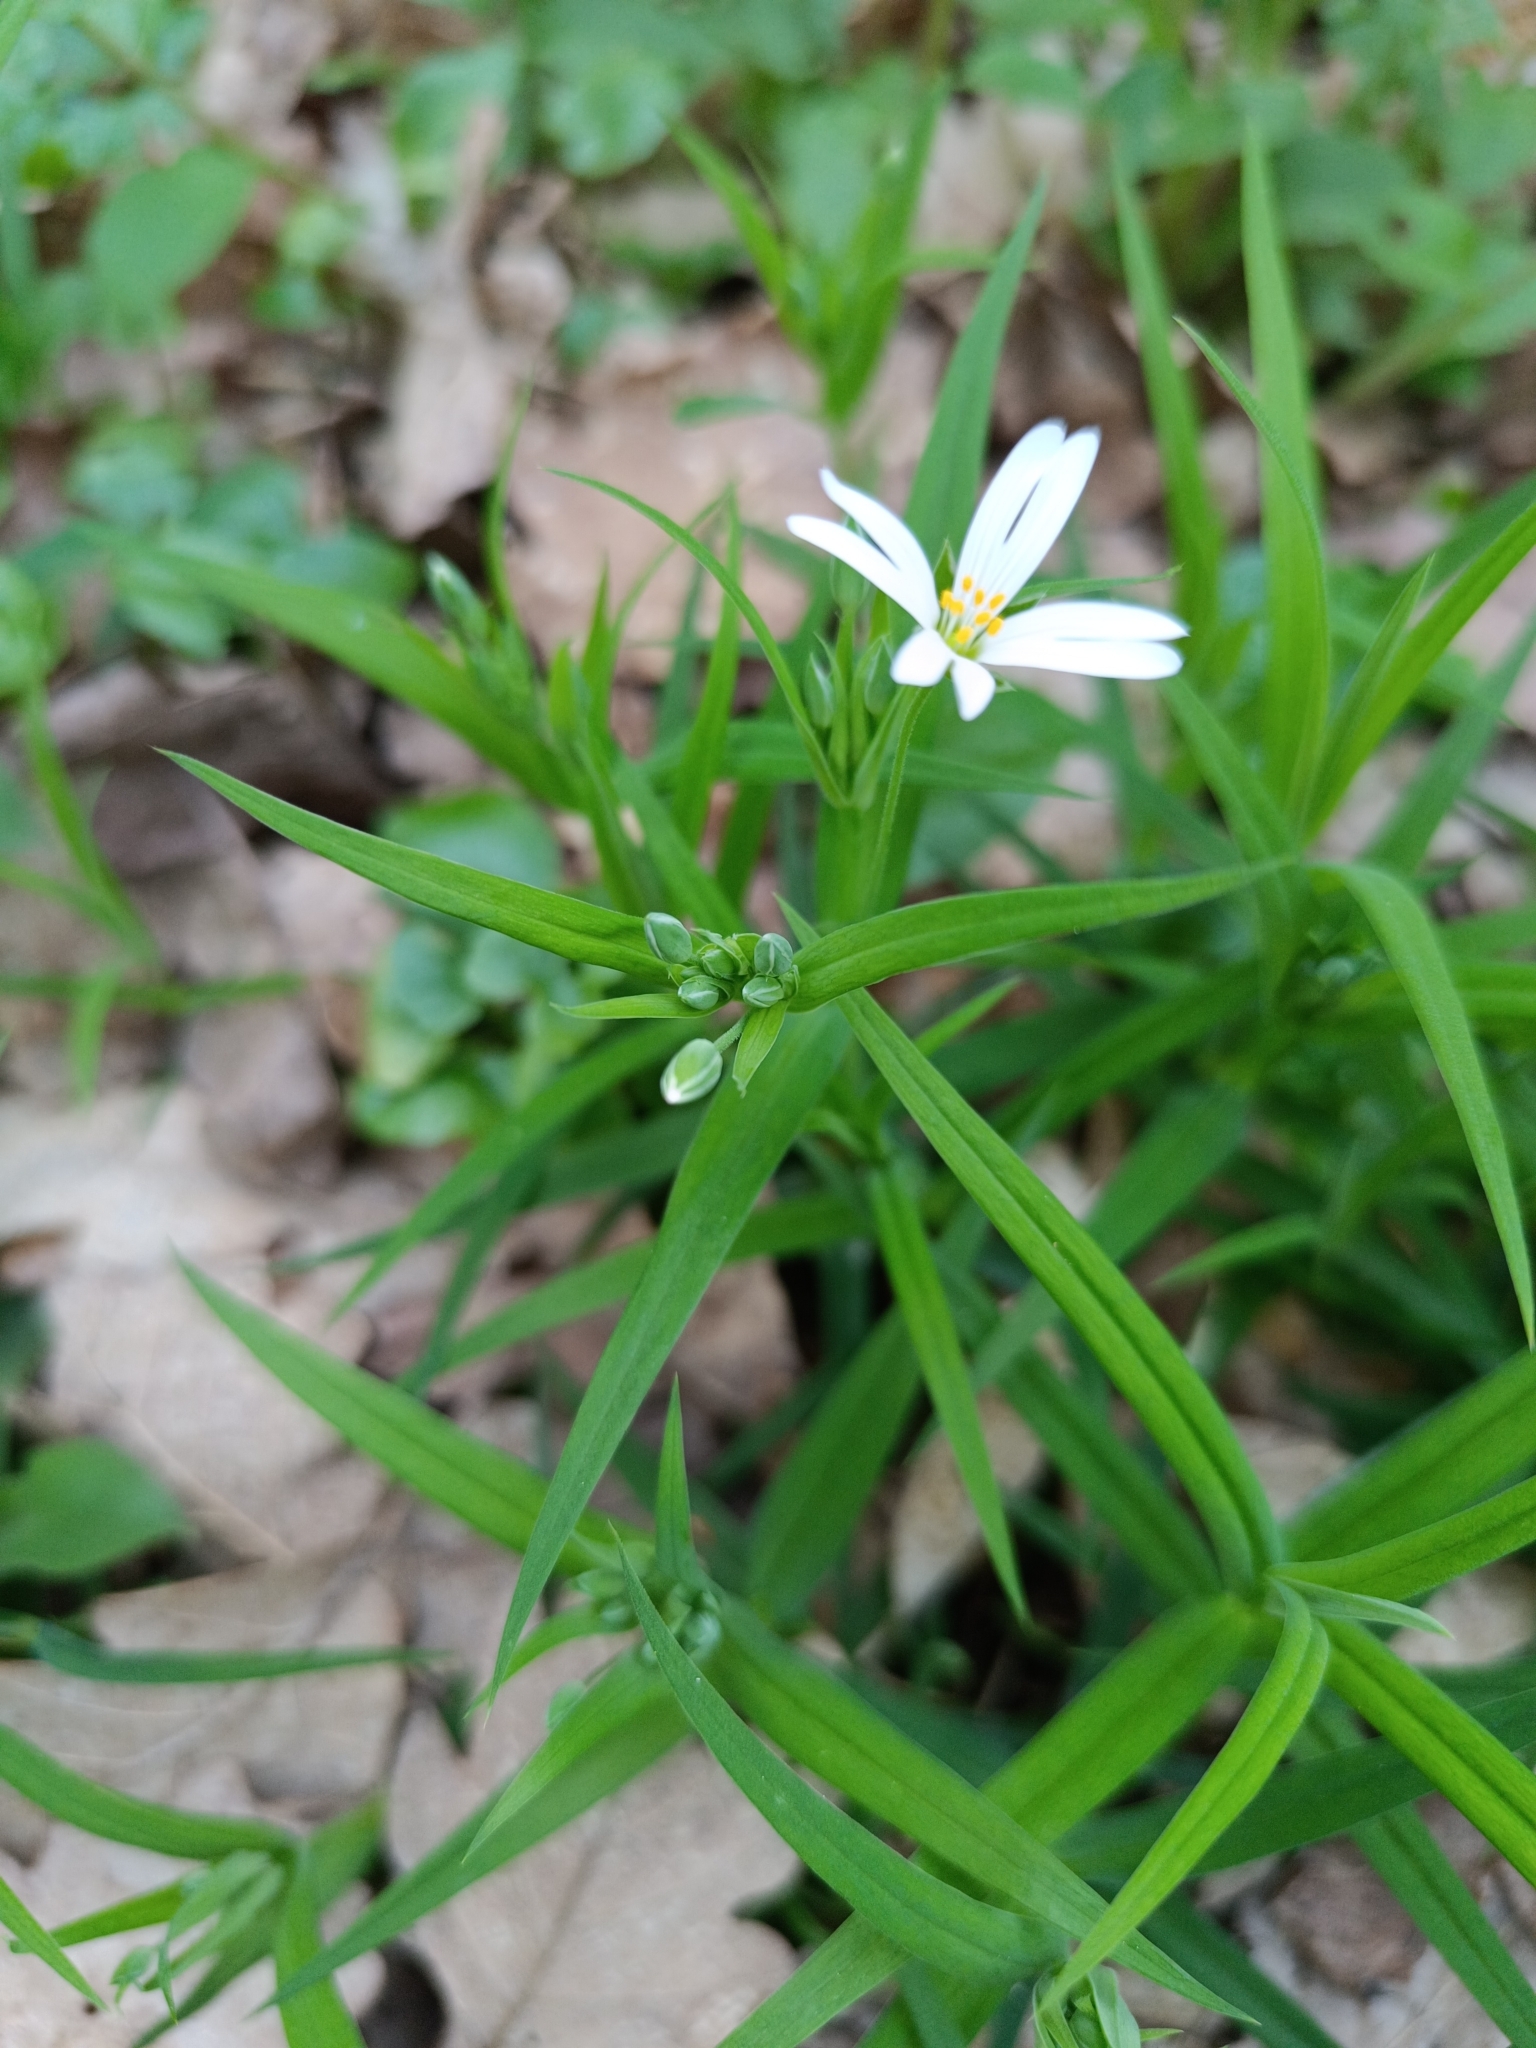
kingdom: Plantae
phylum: Tracheophyta
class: Magnoliopsida
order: Caryophyllales
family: Caryophyllaceae
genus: Rabelera
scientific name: Rabelera holostea
